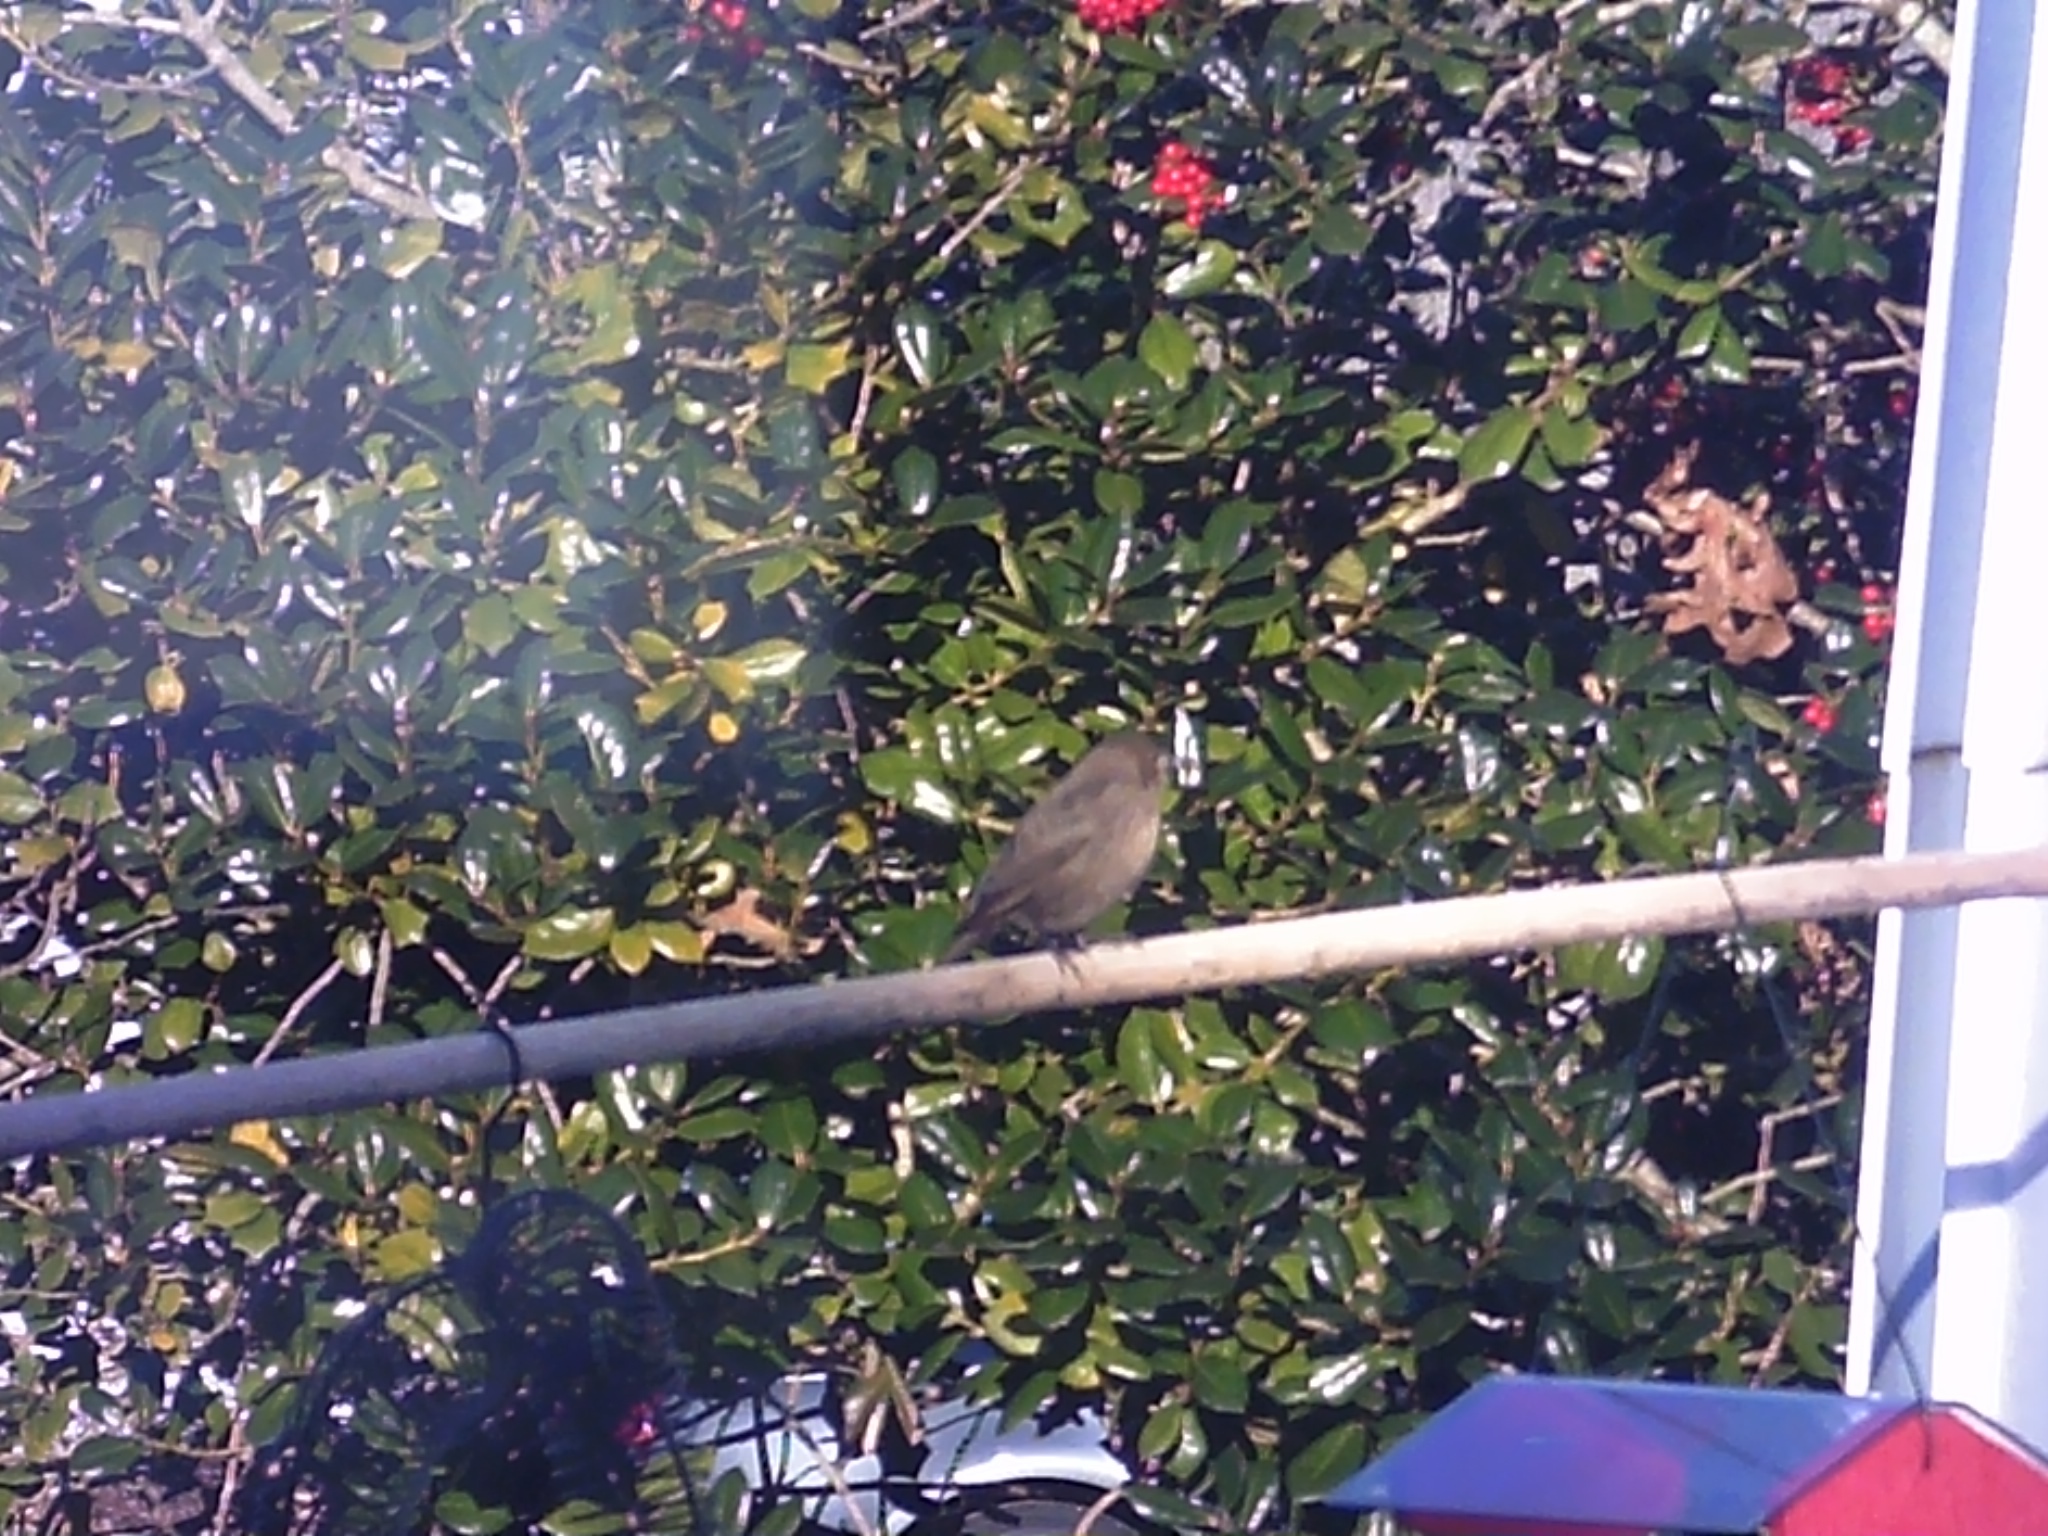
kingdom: Animalia
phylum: Chordata
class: Aves
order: Passeriformes
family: Icteridae
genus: Molothrus
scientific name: Molothrus ater
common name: Brown-headed cowbird
